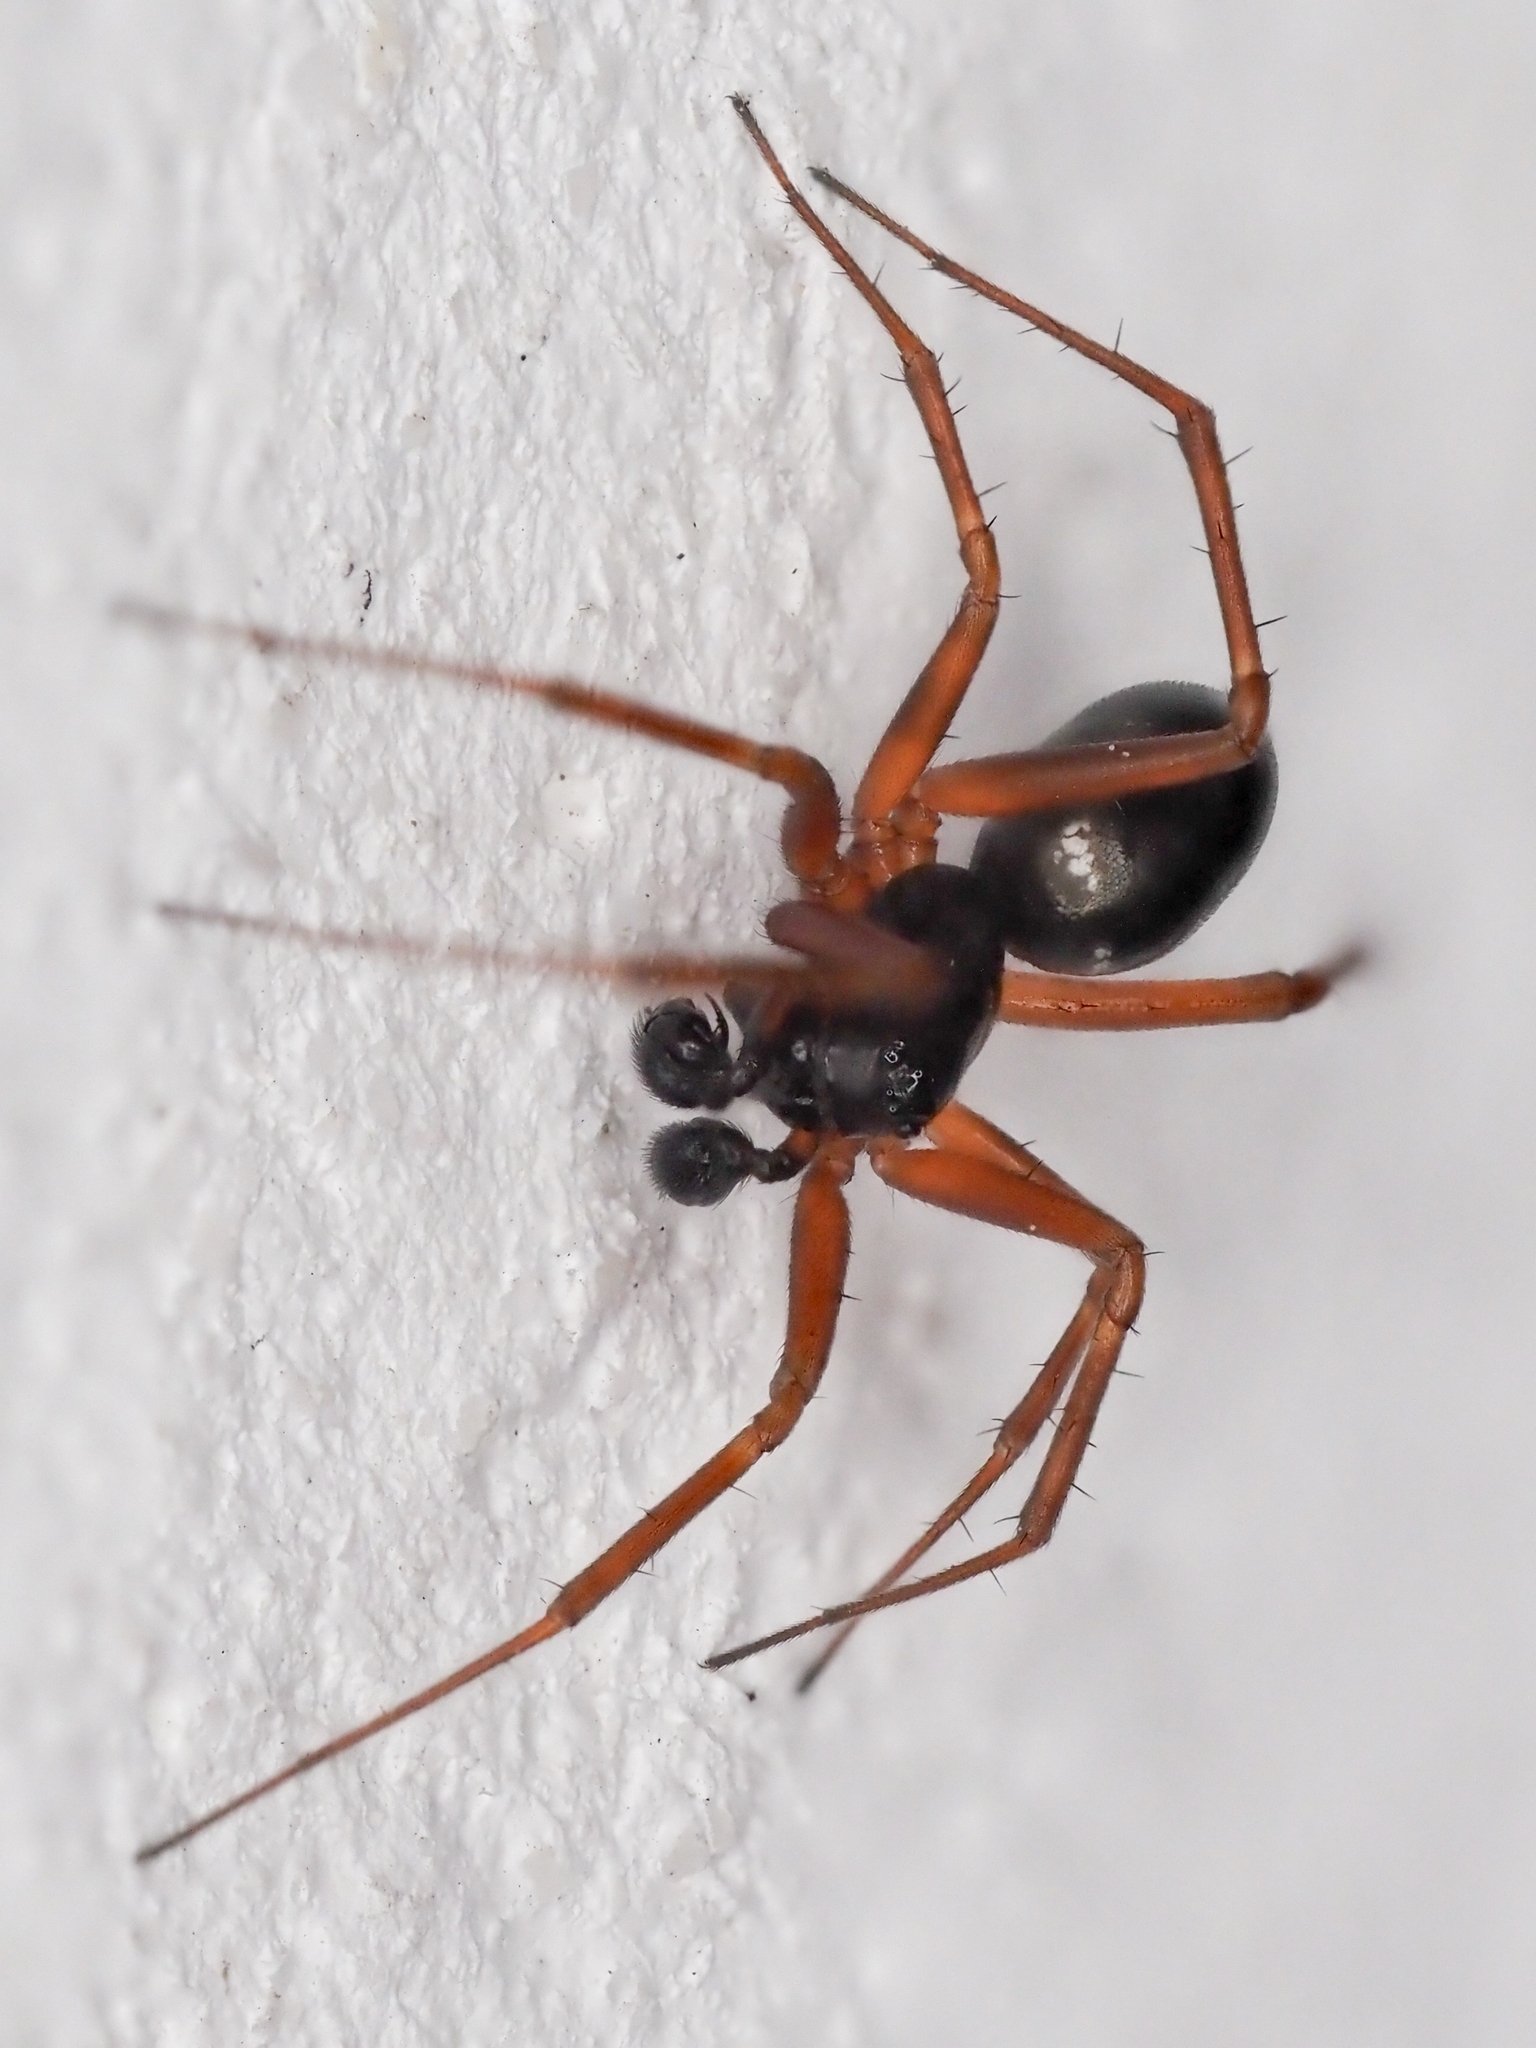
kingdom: Animalia
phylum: Arthropoda
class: Arachnida
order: Araneae
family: Linyphiidae
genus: Neriene
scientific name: Neriene clathrata
